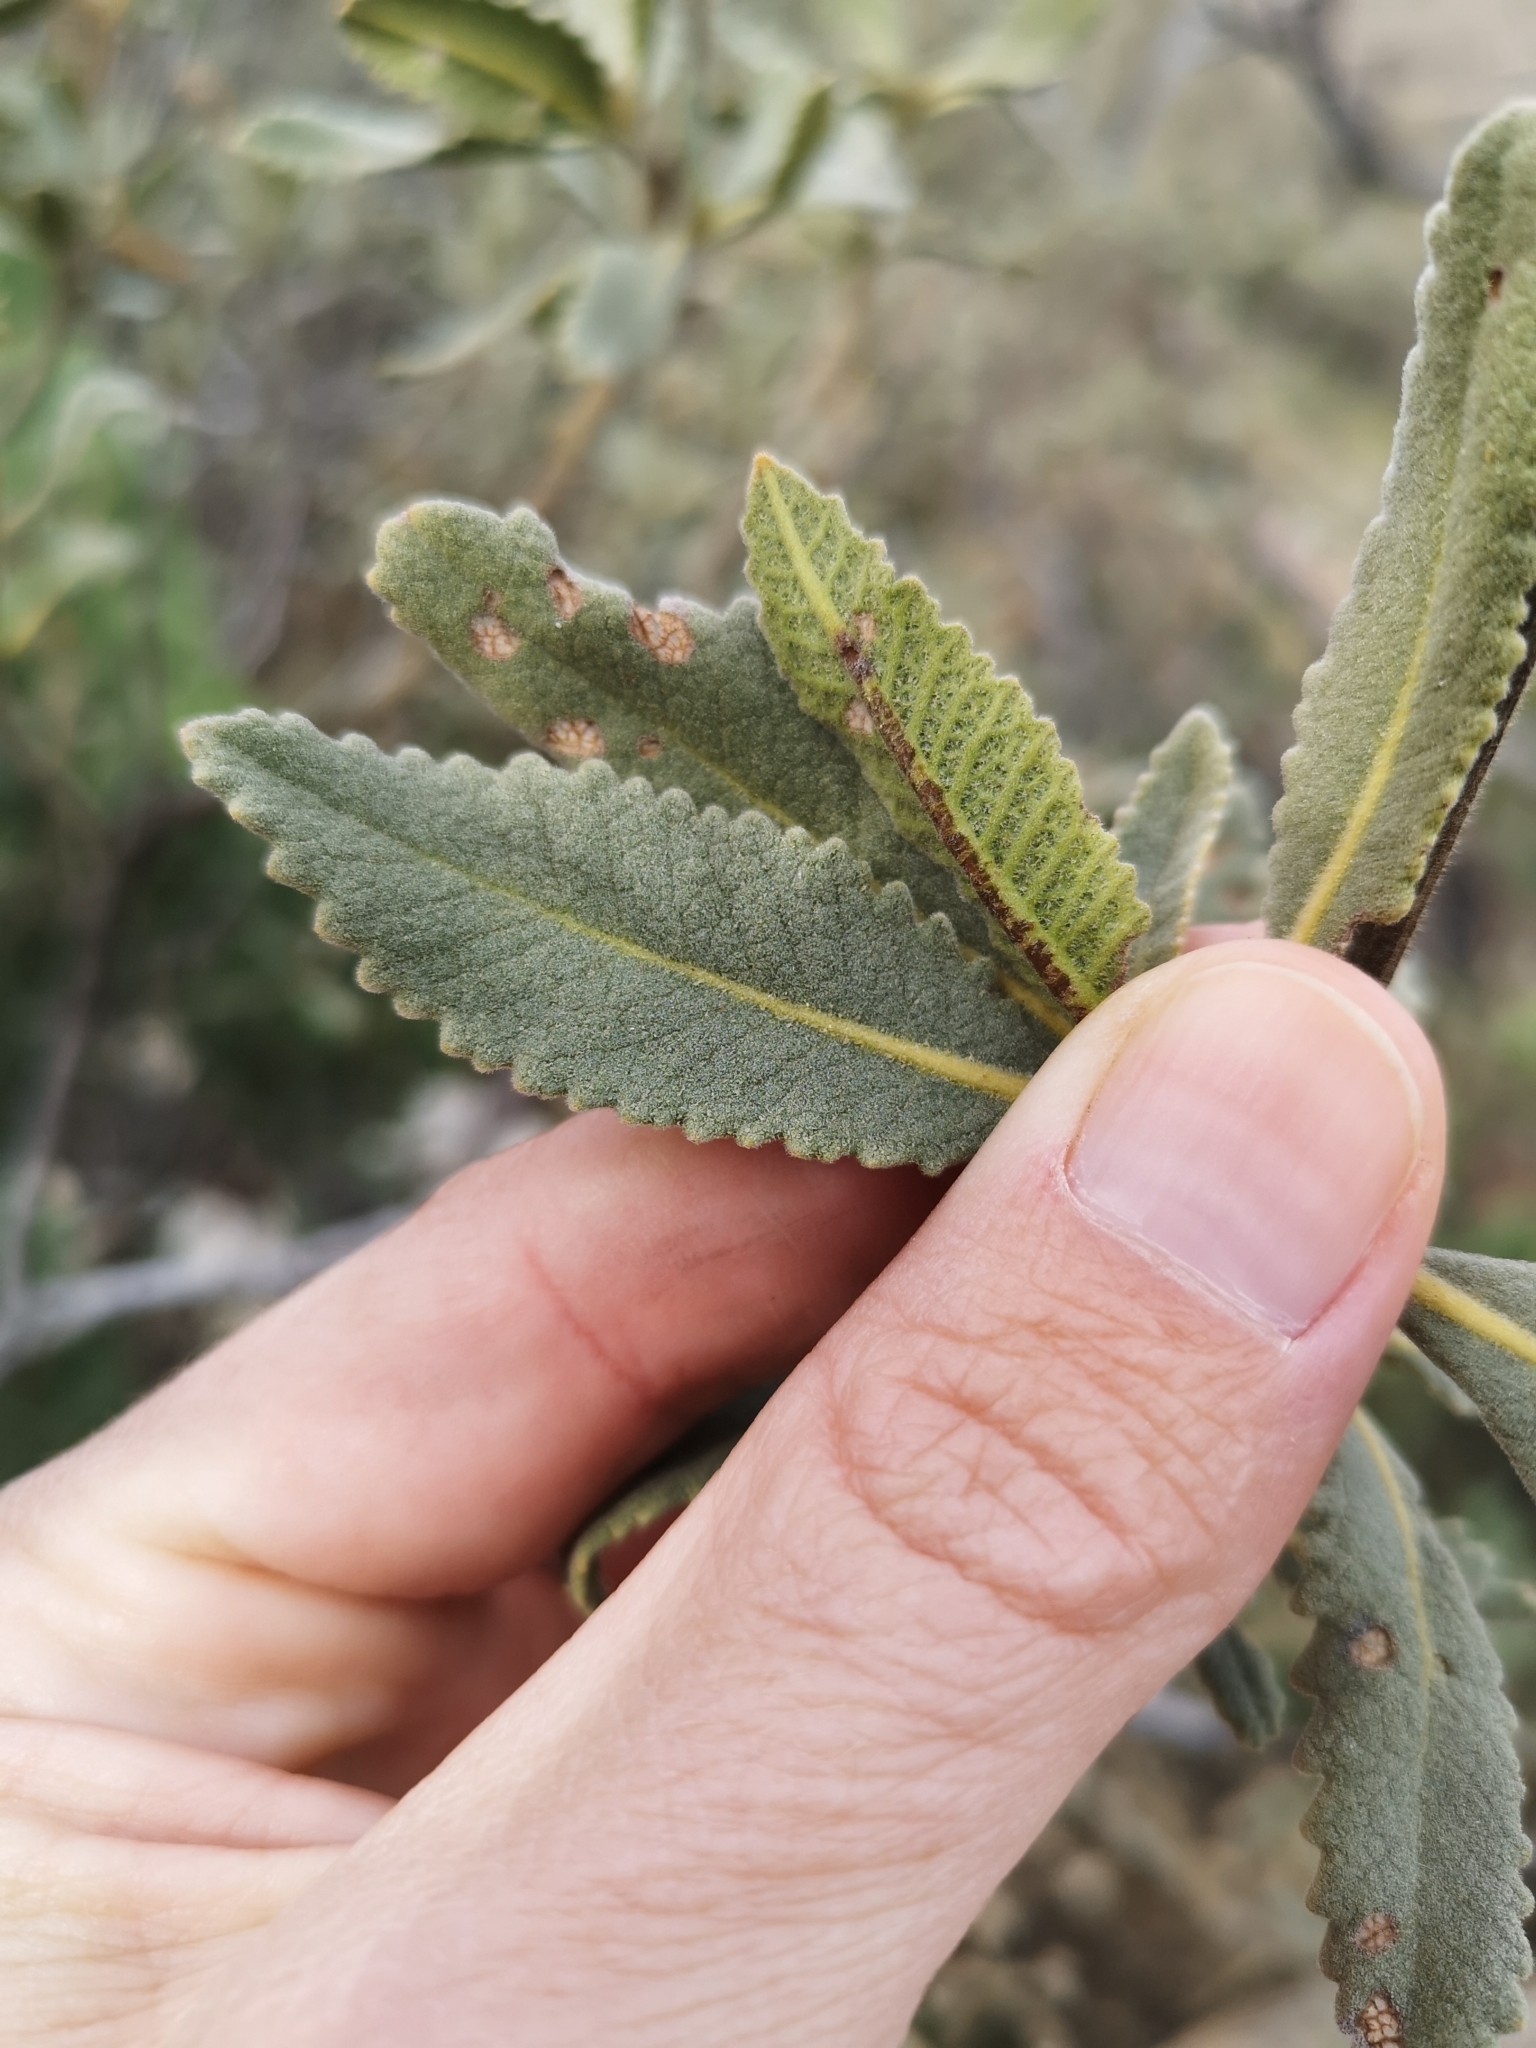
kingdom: Plantae
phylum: Tracheophyta
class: Magnoliopsida
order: Boraginales
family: Namaceae
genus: Eriodictyon
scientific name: Eriodictyon crassifolium
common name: Thick-leaf yerba-santa
